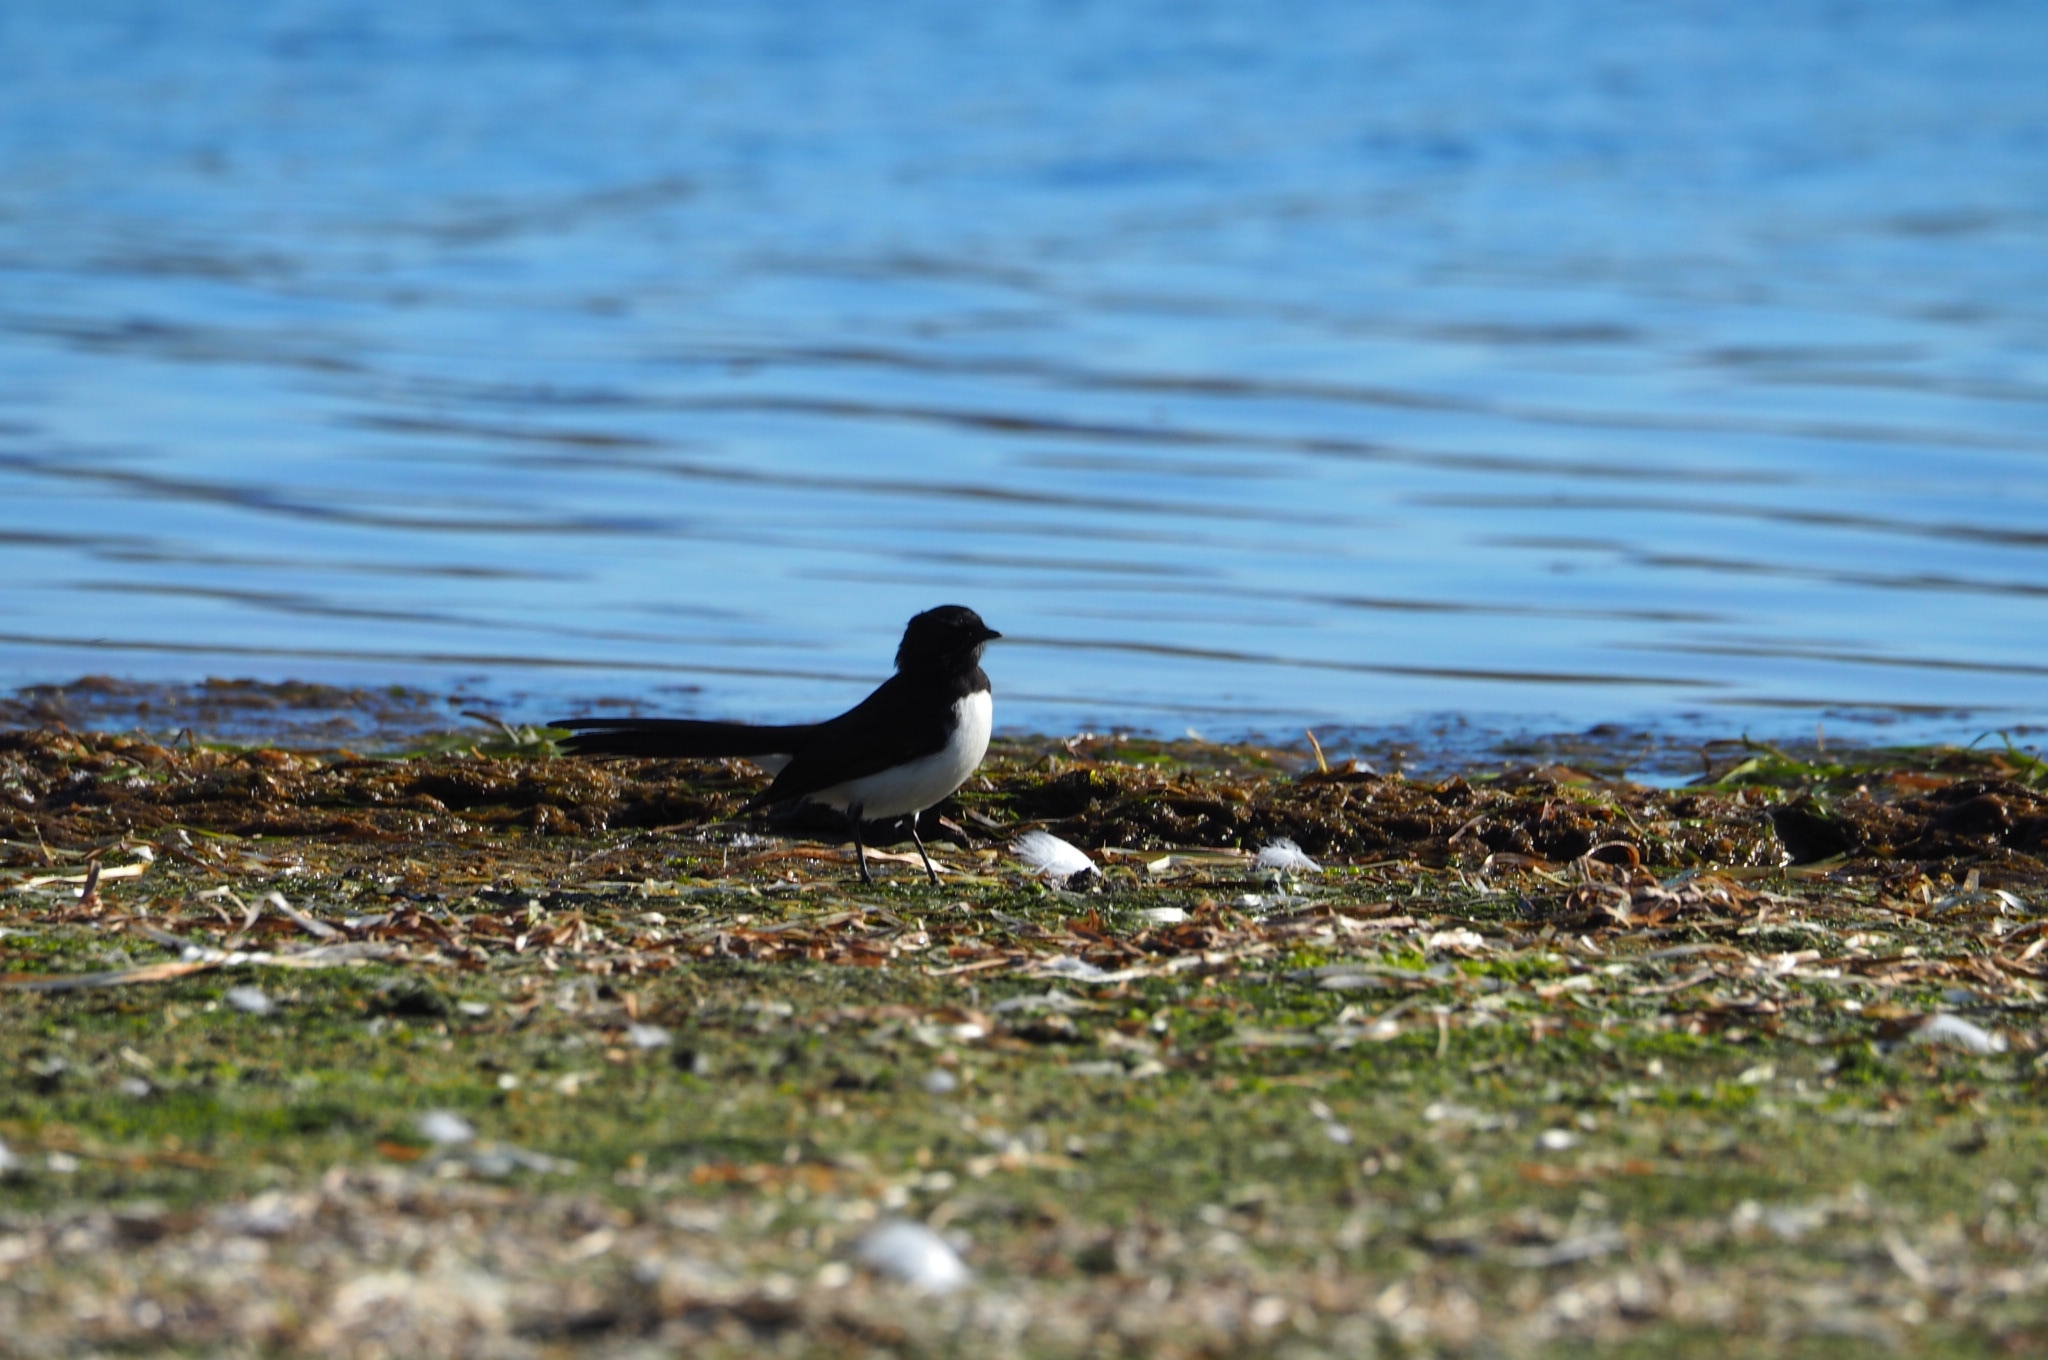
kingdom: Animalia
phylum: Chordata
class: Aves
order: Passeriformes
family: Rhipiduridae
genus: Rhipidura
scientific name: Rhipidura leucophrys
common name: Willie wagtail
